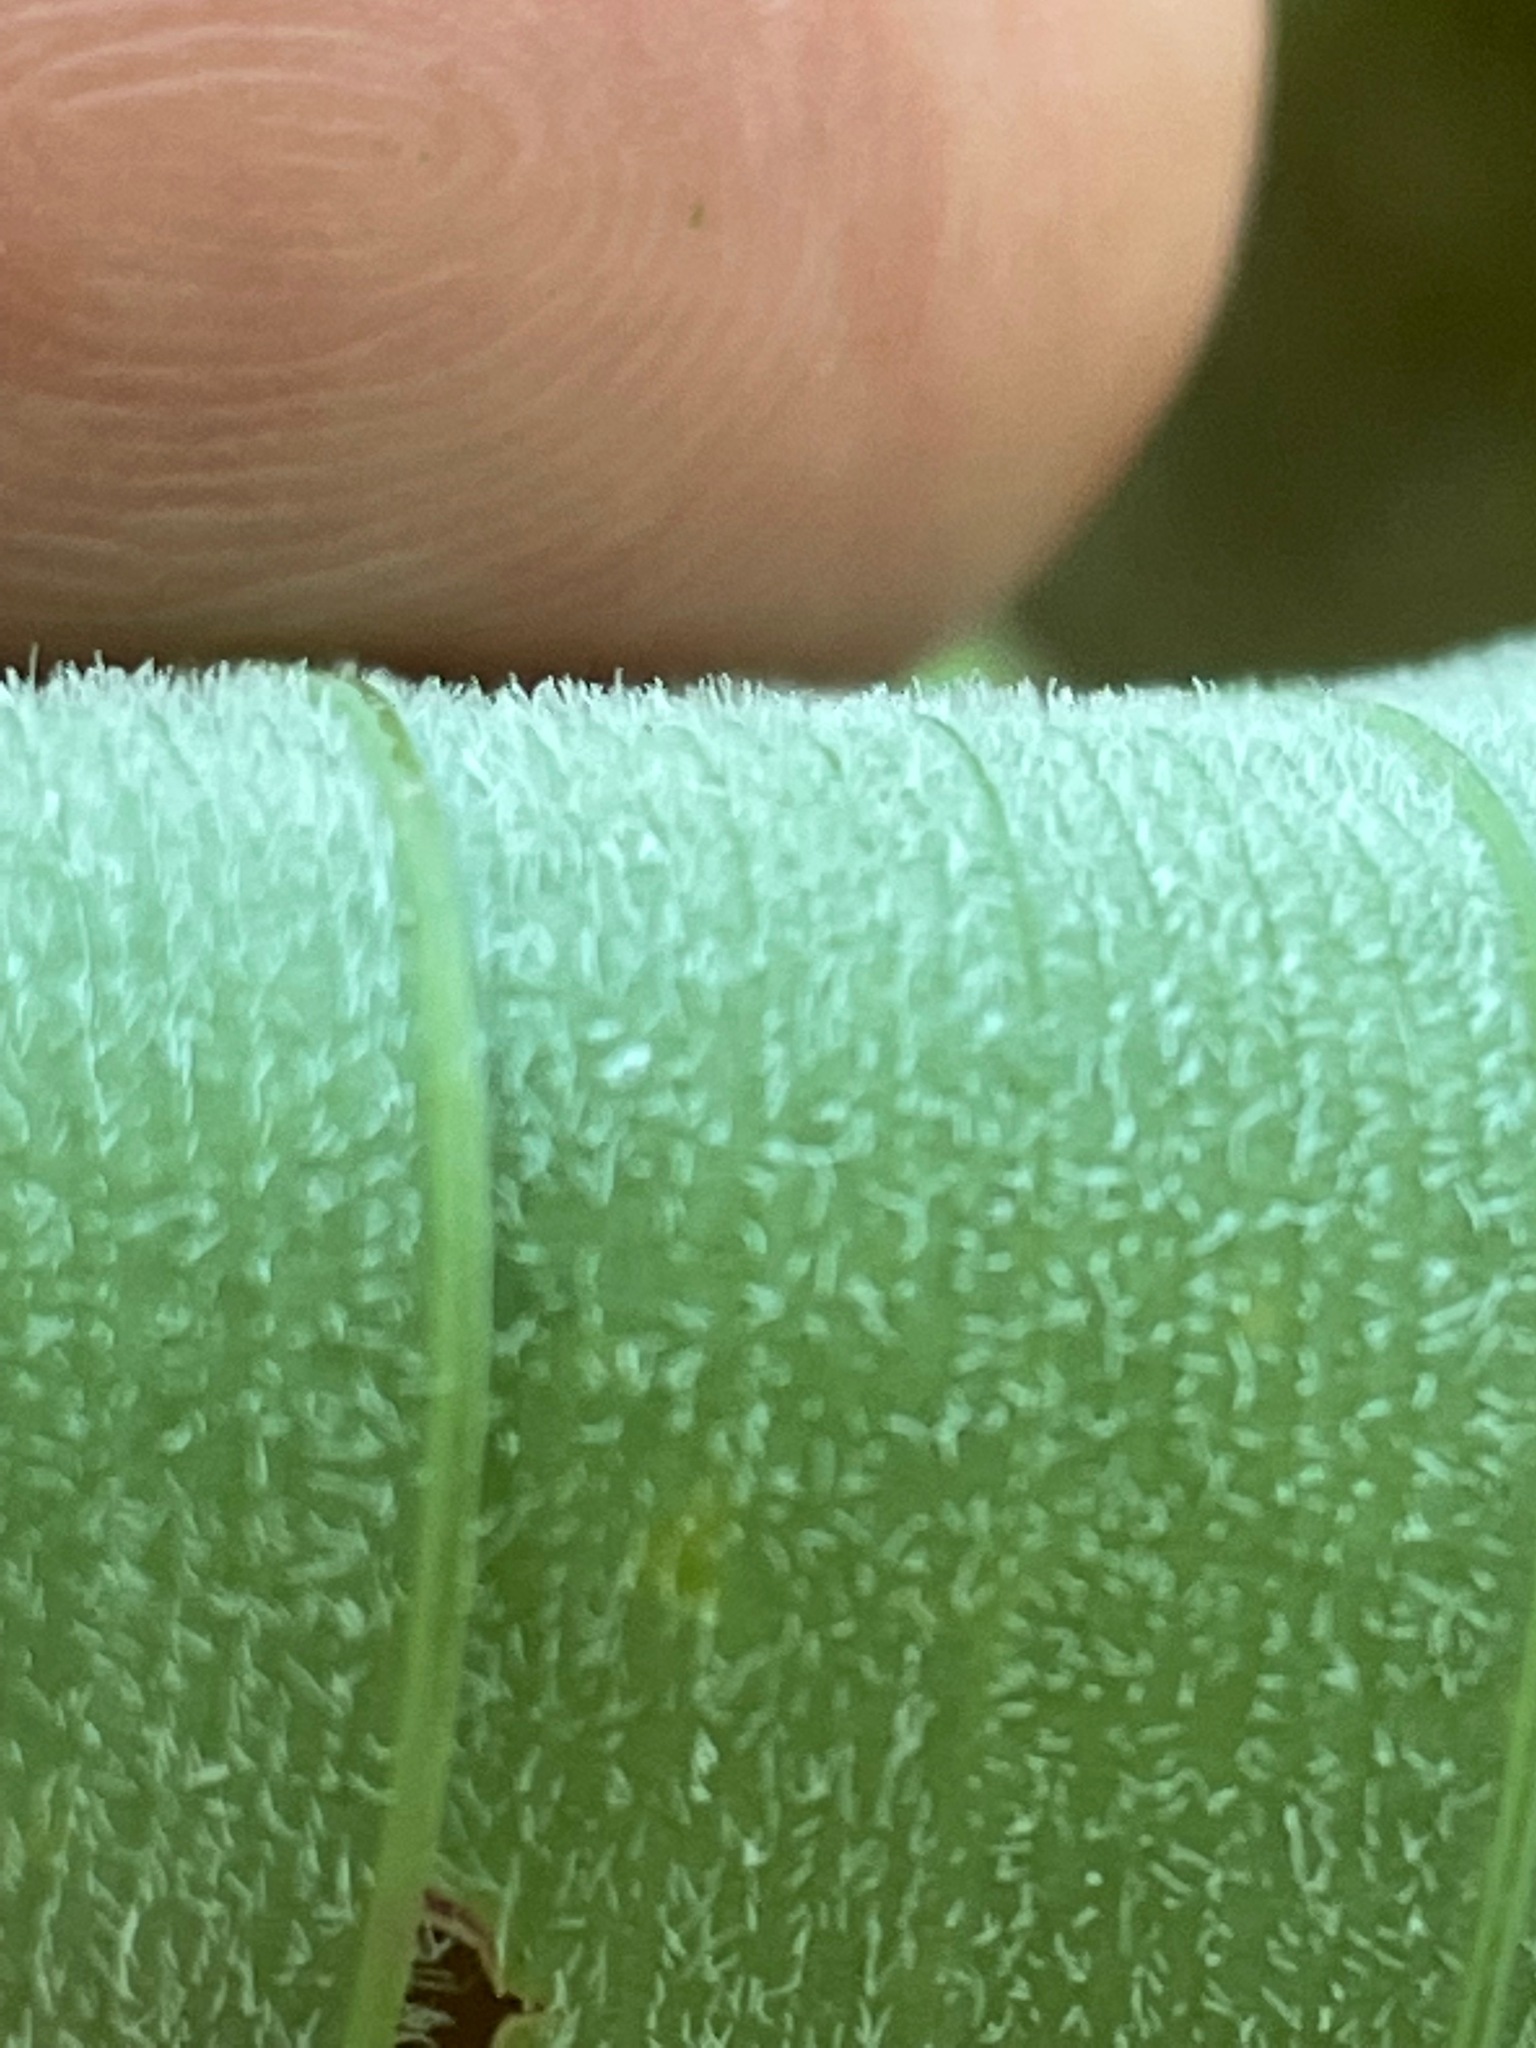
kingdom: Plantae
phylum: Tracheophyta
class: Liliopsida
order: Asparagales
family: Asparagaceae
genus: Polygonatum
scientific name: Polygonatum pubescens
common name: Downy solomon's seal
